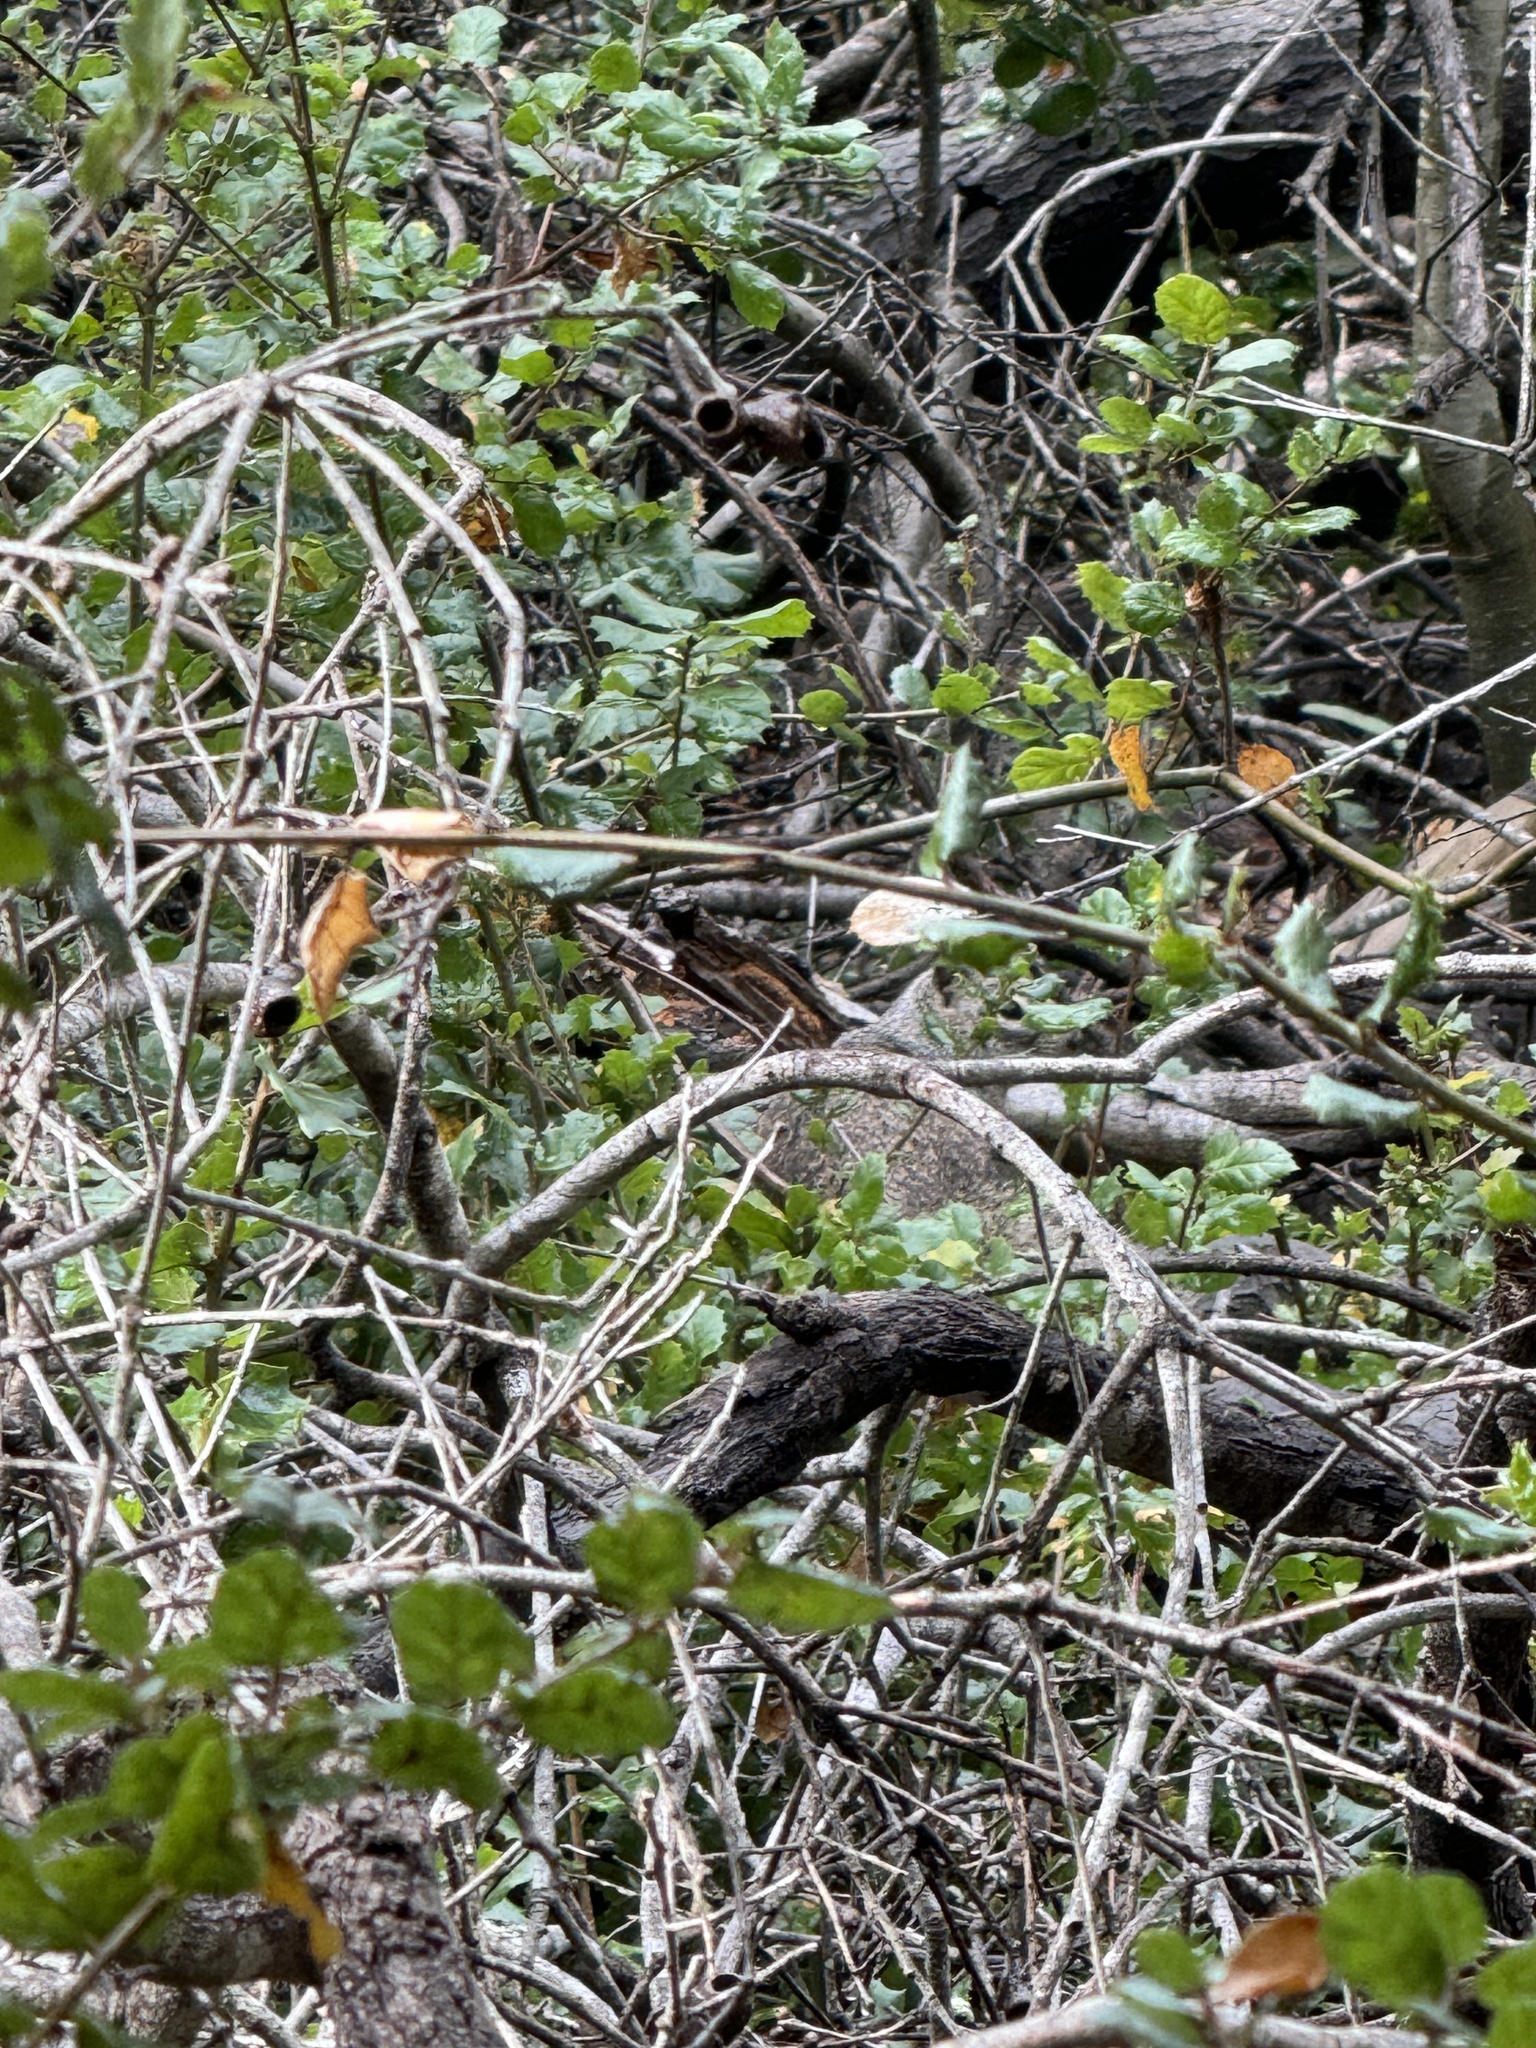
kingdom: Animalia
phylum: Chordata
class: Mammalia
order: Rodentia
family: Sciuridae
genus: Otospermophilus
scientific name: Otospermophilus beecheyi
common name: California ground squirrel
